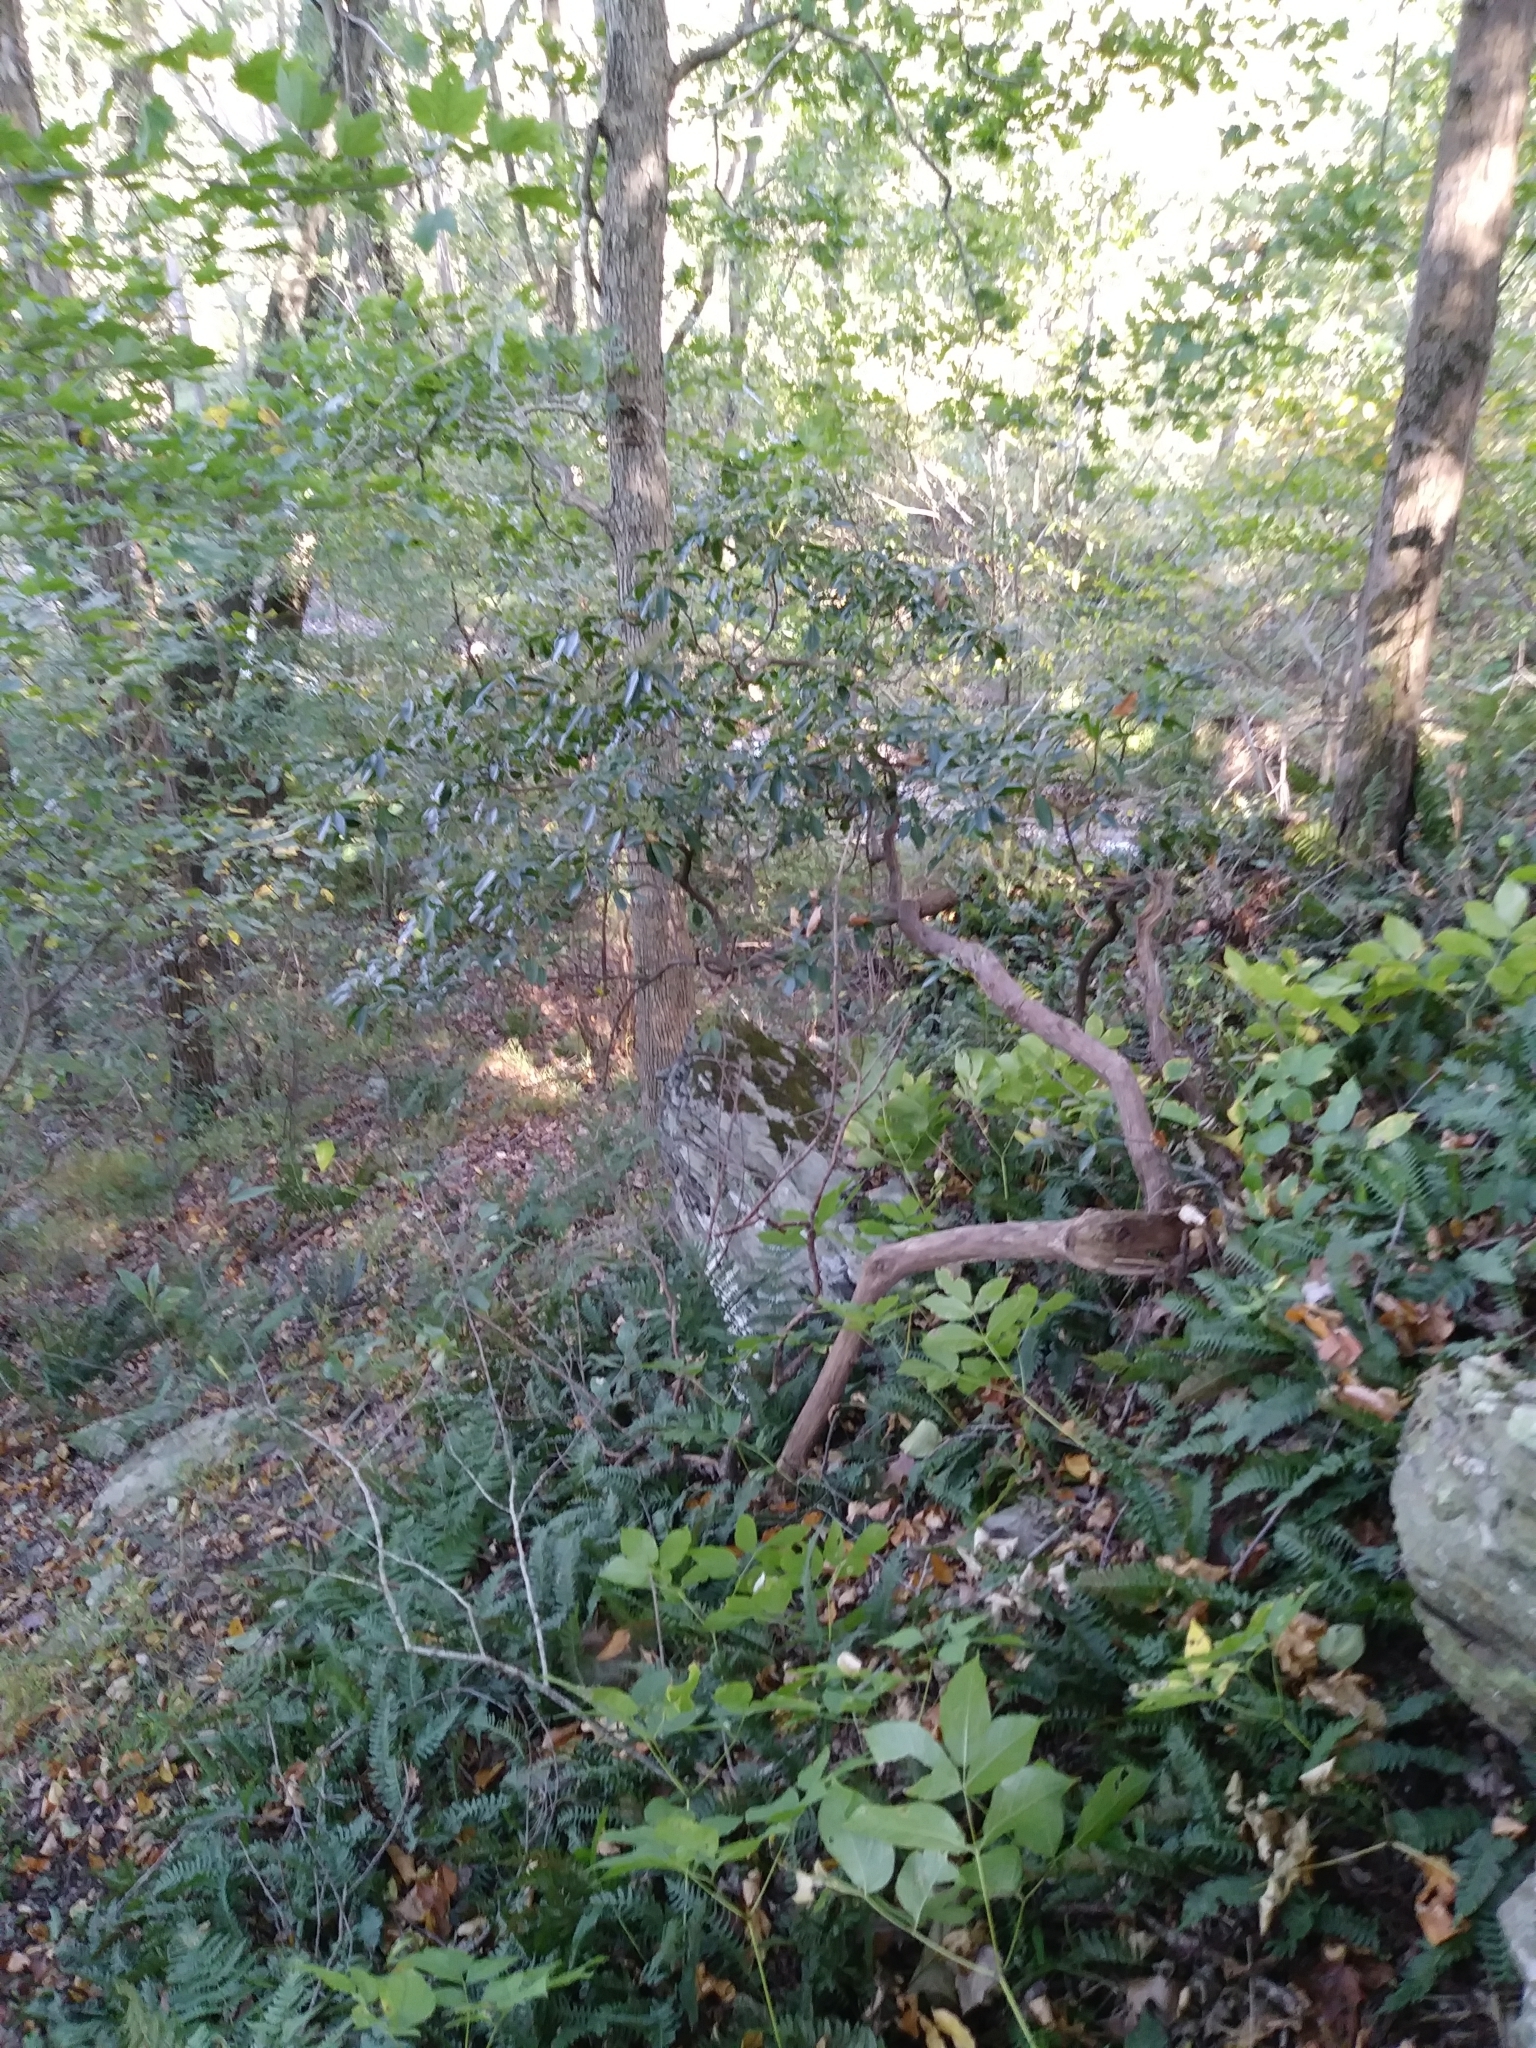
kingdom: Plantae
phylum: Tracheophyta
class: Magnoliopsida
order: Ericales
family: Ericaceae
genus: Kalmia
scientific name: Kalmia latifolia
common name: Mountain-laurel
